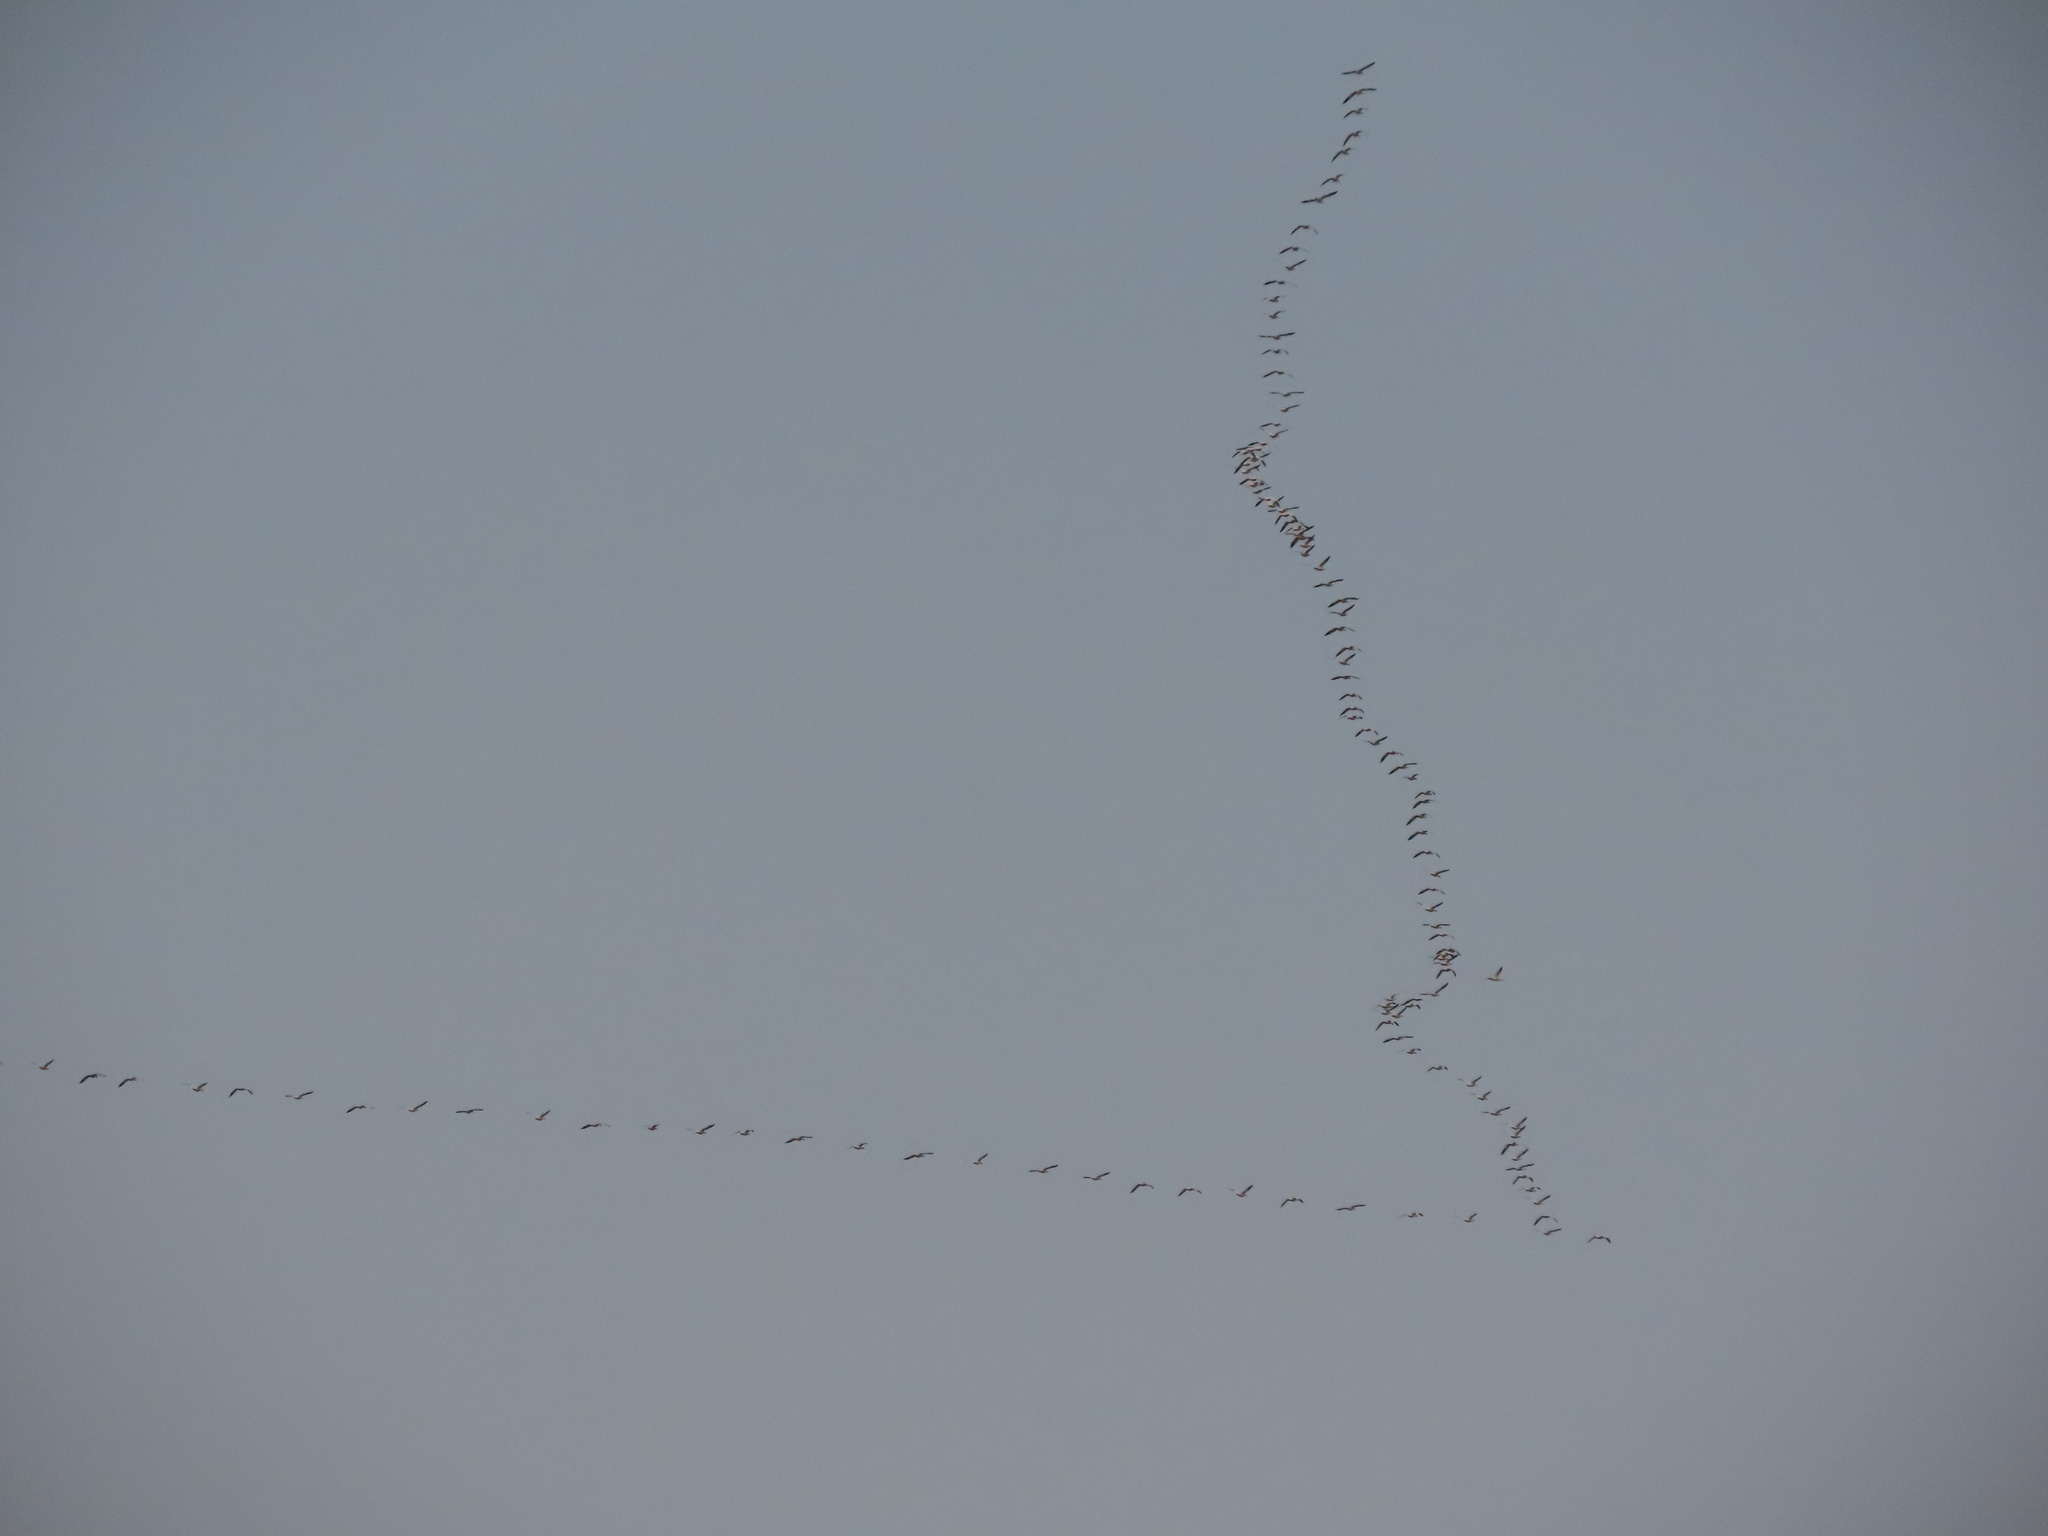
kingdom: Animalia
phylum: Chordata
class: Aves
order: Anseriformes
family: Anatidae
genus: Anser
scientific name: Anser caerulescens
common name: Snow goose
